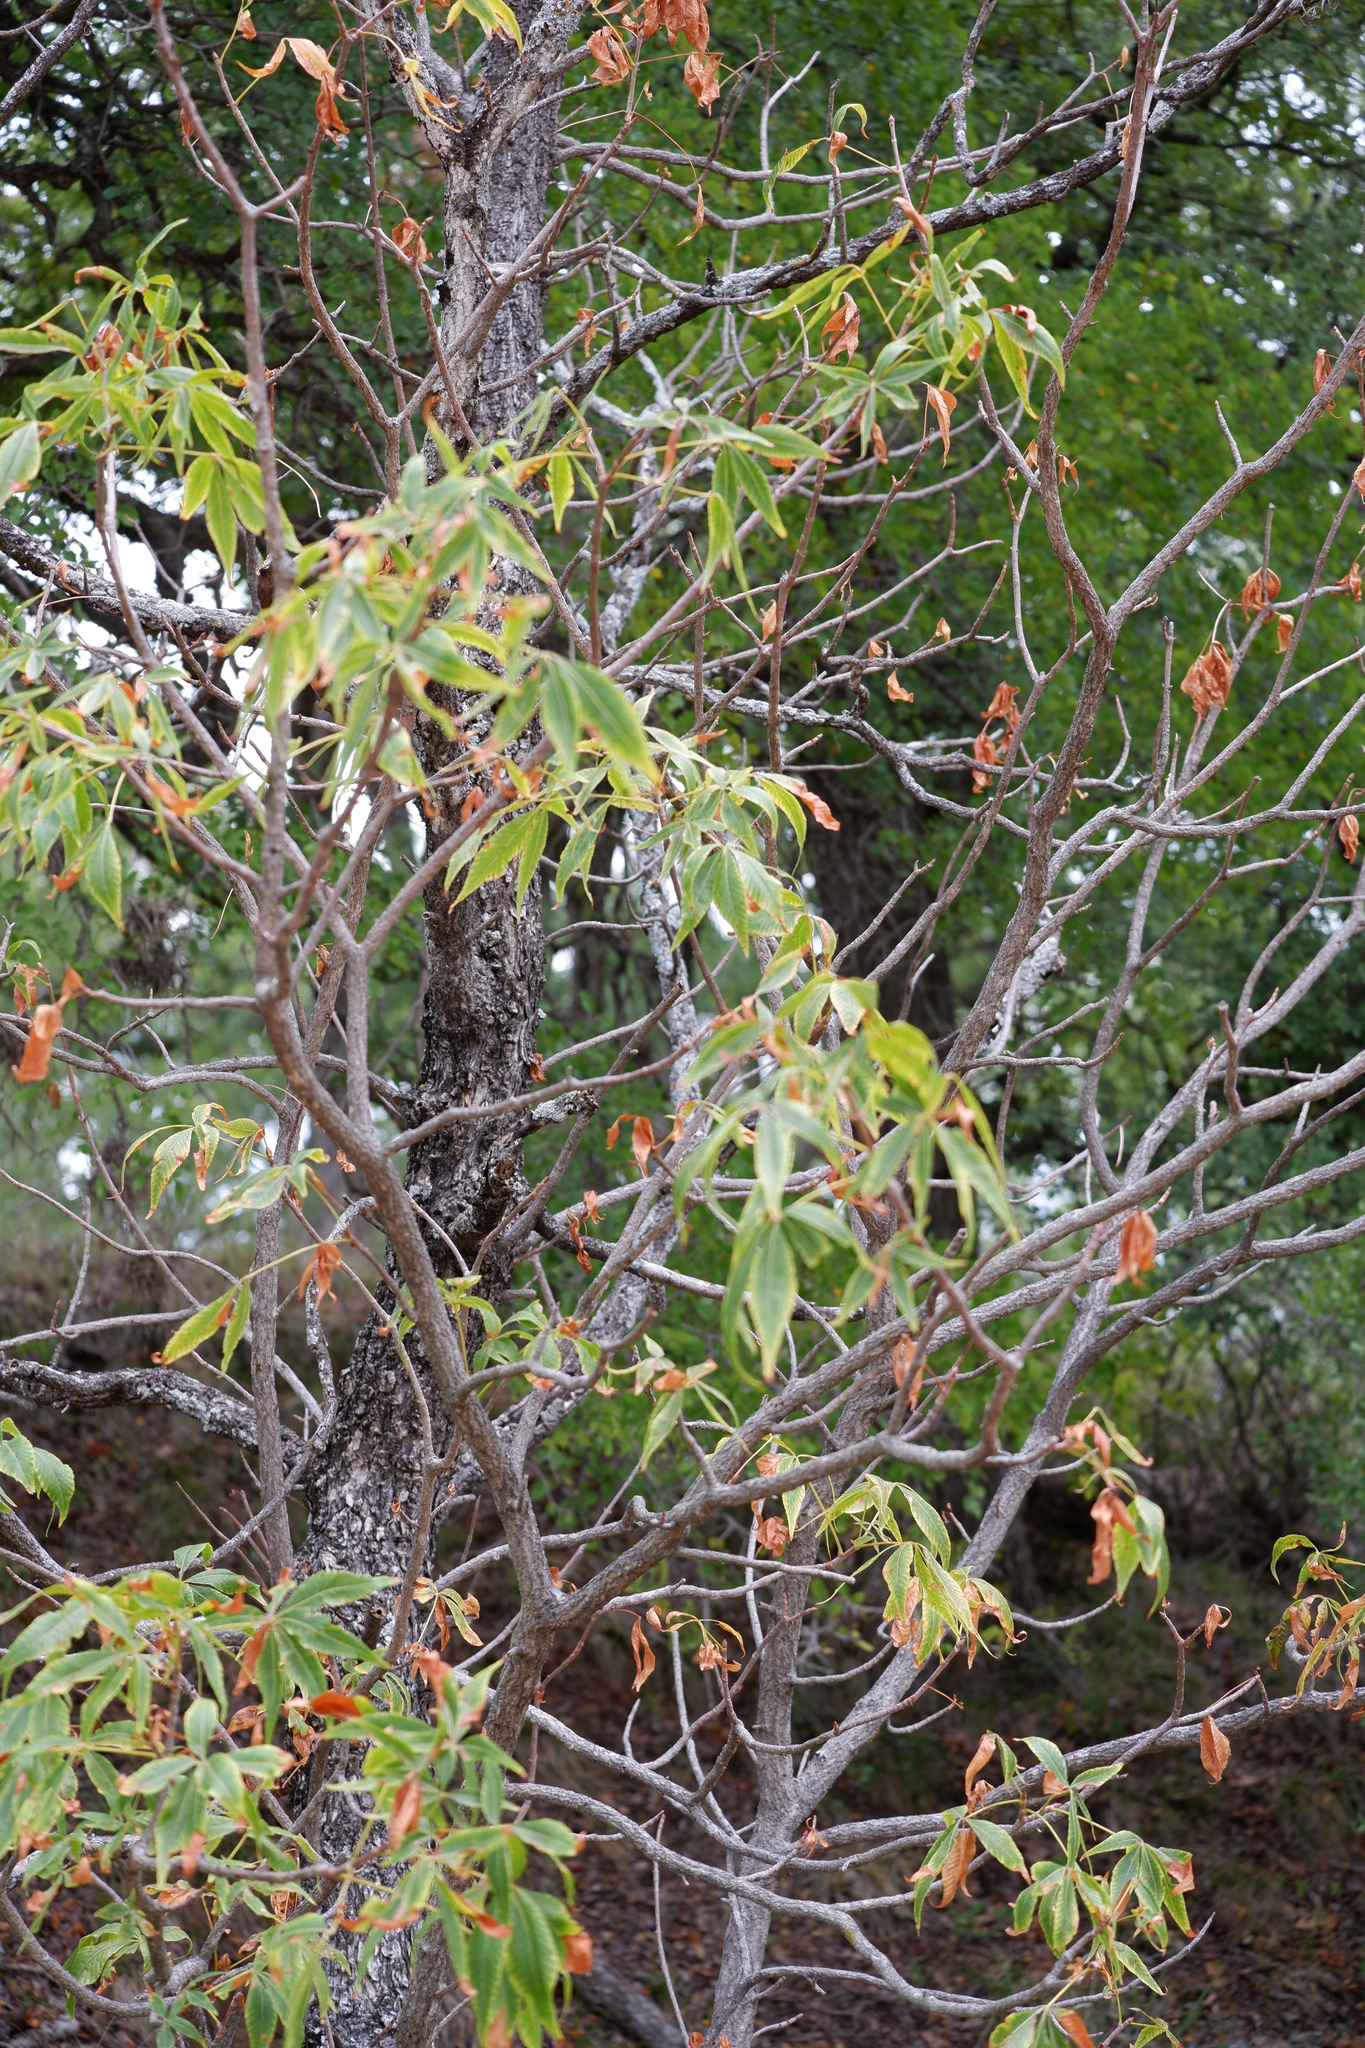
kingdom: Plantae
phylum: Tracheophyta
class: Magnoliopsida
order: Sapindales
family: Sapindaceae
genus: Aesculus
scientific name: Aesculus glabra
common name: Ohio buckeye
